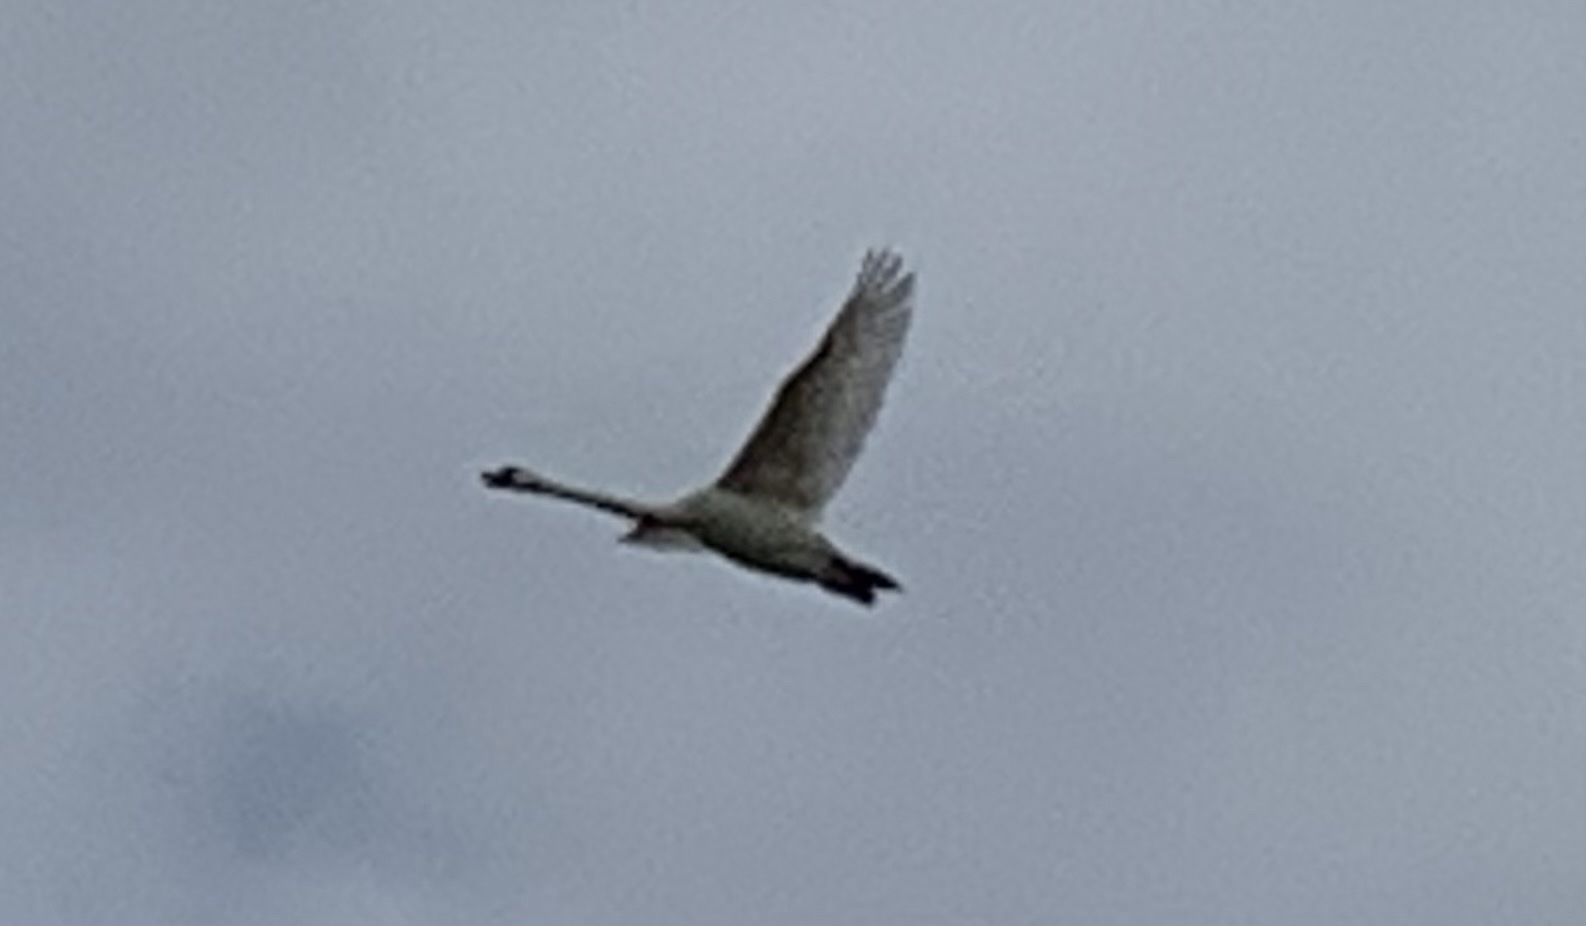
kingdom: Animalia
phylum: Chordata
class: Aves
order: Anseriformes
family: Anatidae
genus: Cygnus
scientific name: Cygnus olor
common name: Mute swan
